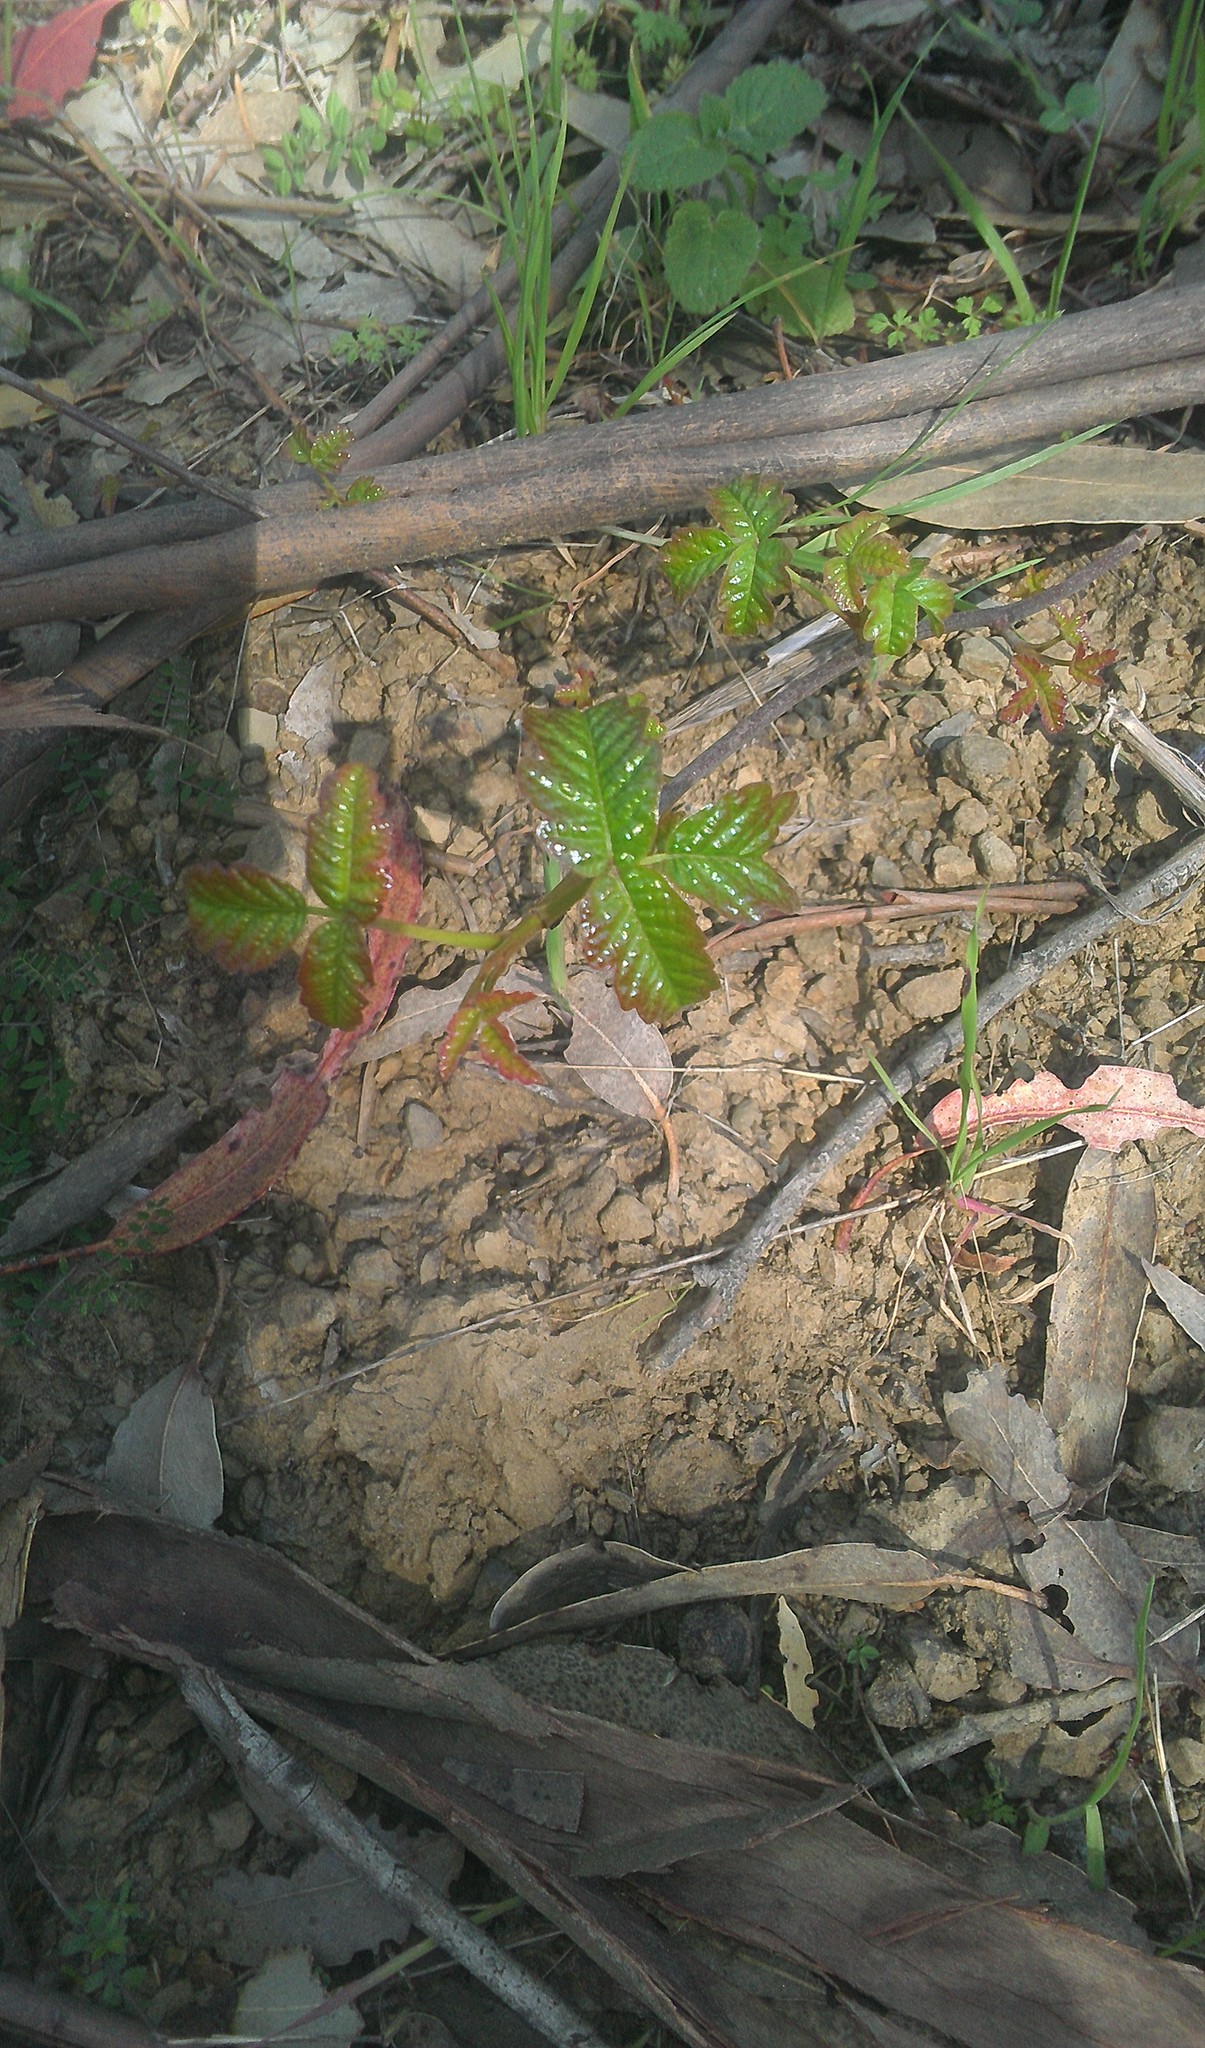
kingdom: Plantae
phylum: Tracheophyta
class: Magnoliopsida
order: Sapindales
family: Anacardiaceae
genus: Toxicodendron
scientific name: Toxicodendron diversilobum
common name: Pacific poison-oak
